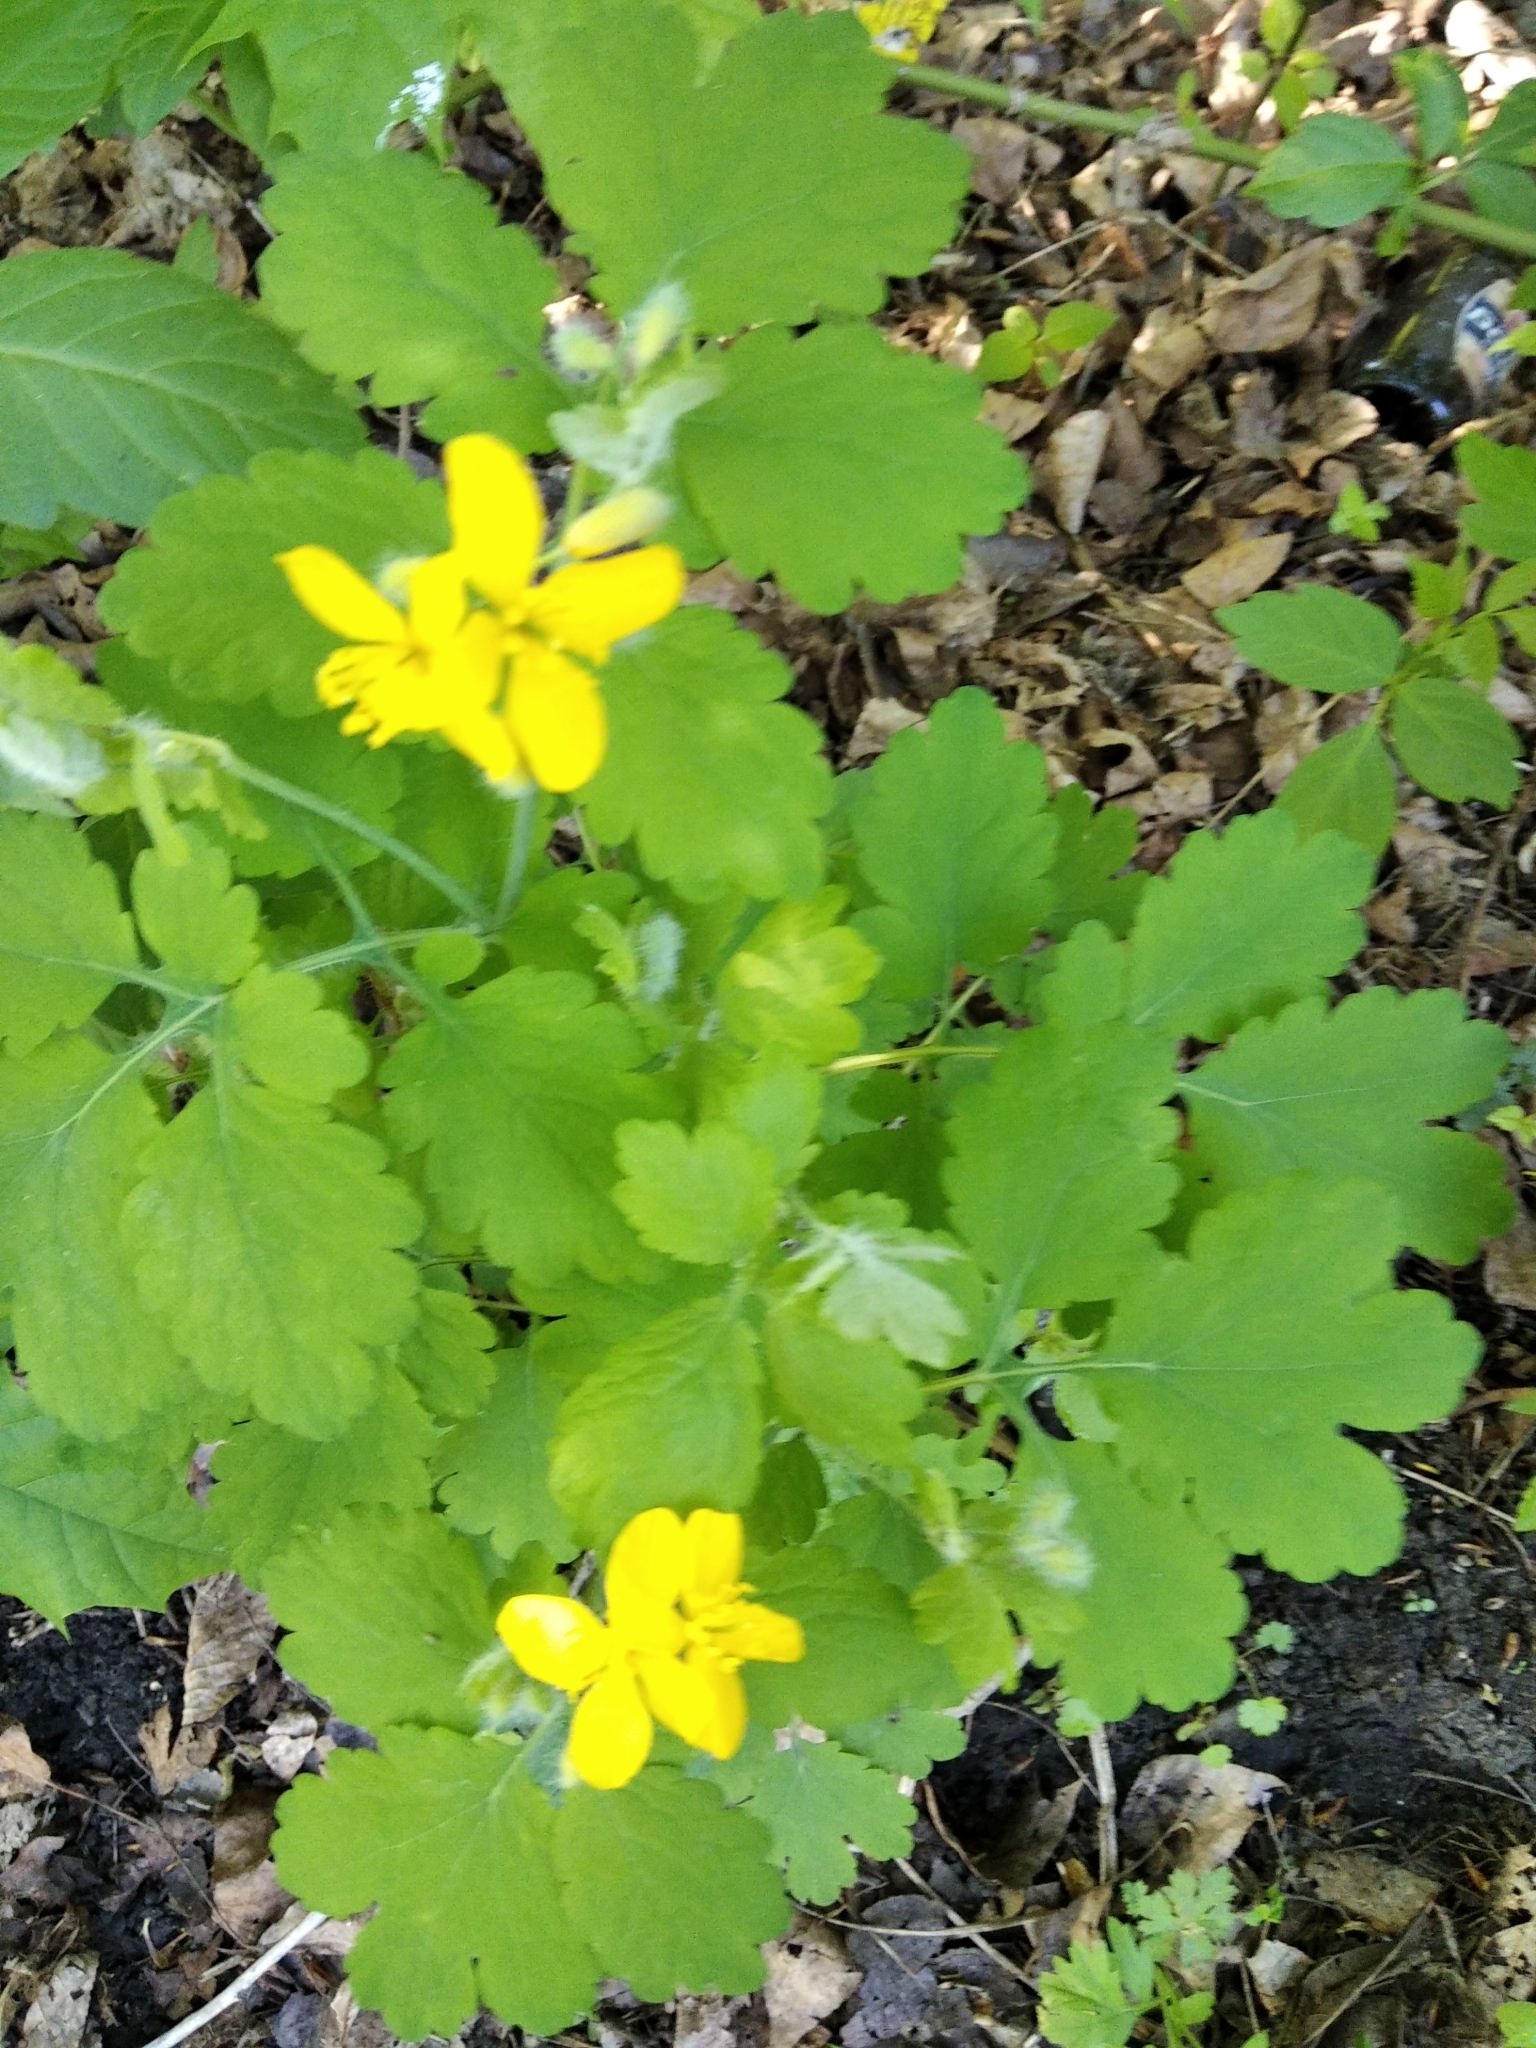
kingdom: Plantae
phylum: Tracheophyta
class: Magnoliopsida
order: Ranunculales
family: Papaveraceae
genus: Chelidonium
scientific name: Chelidonium majus
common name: Greater celandine
